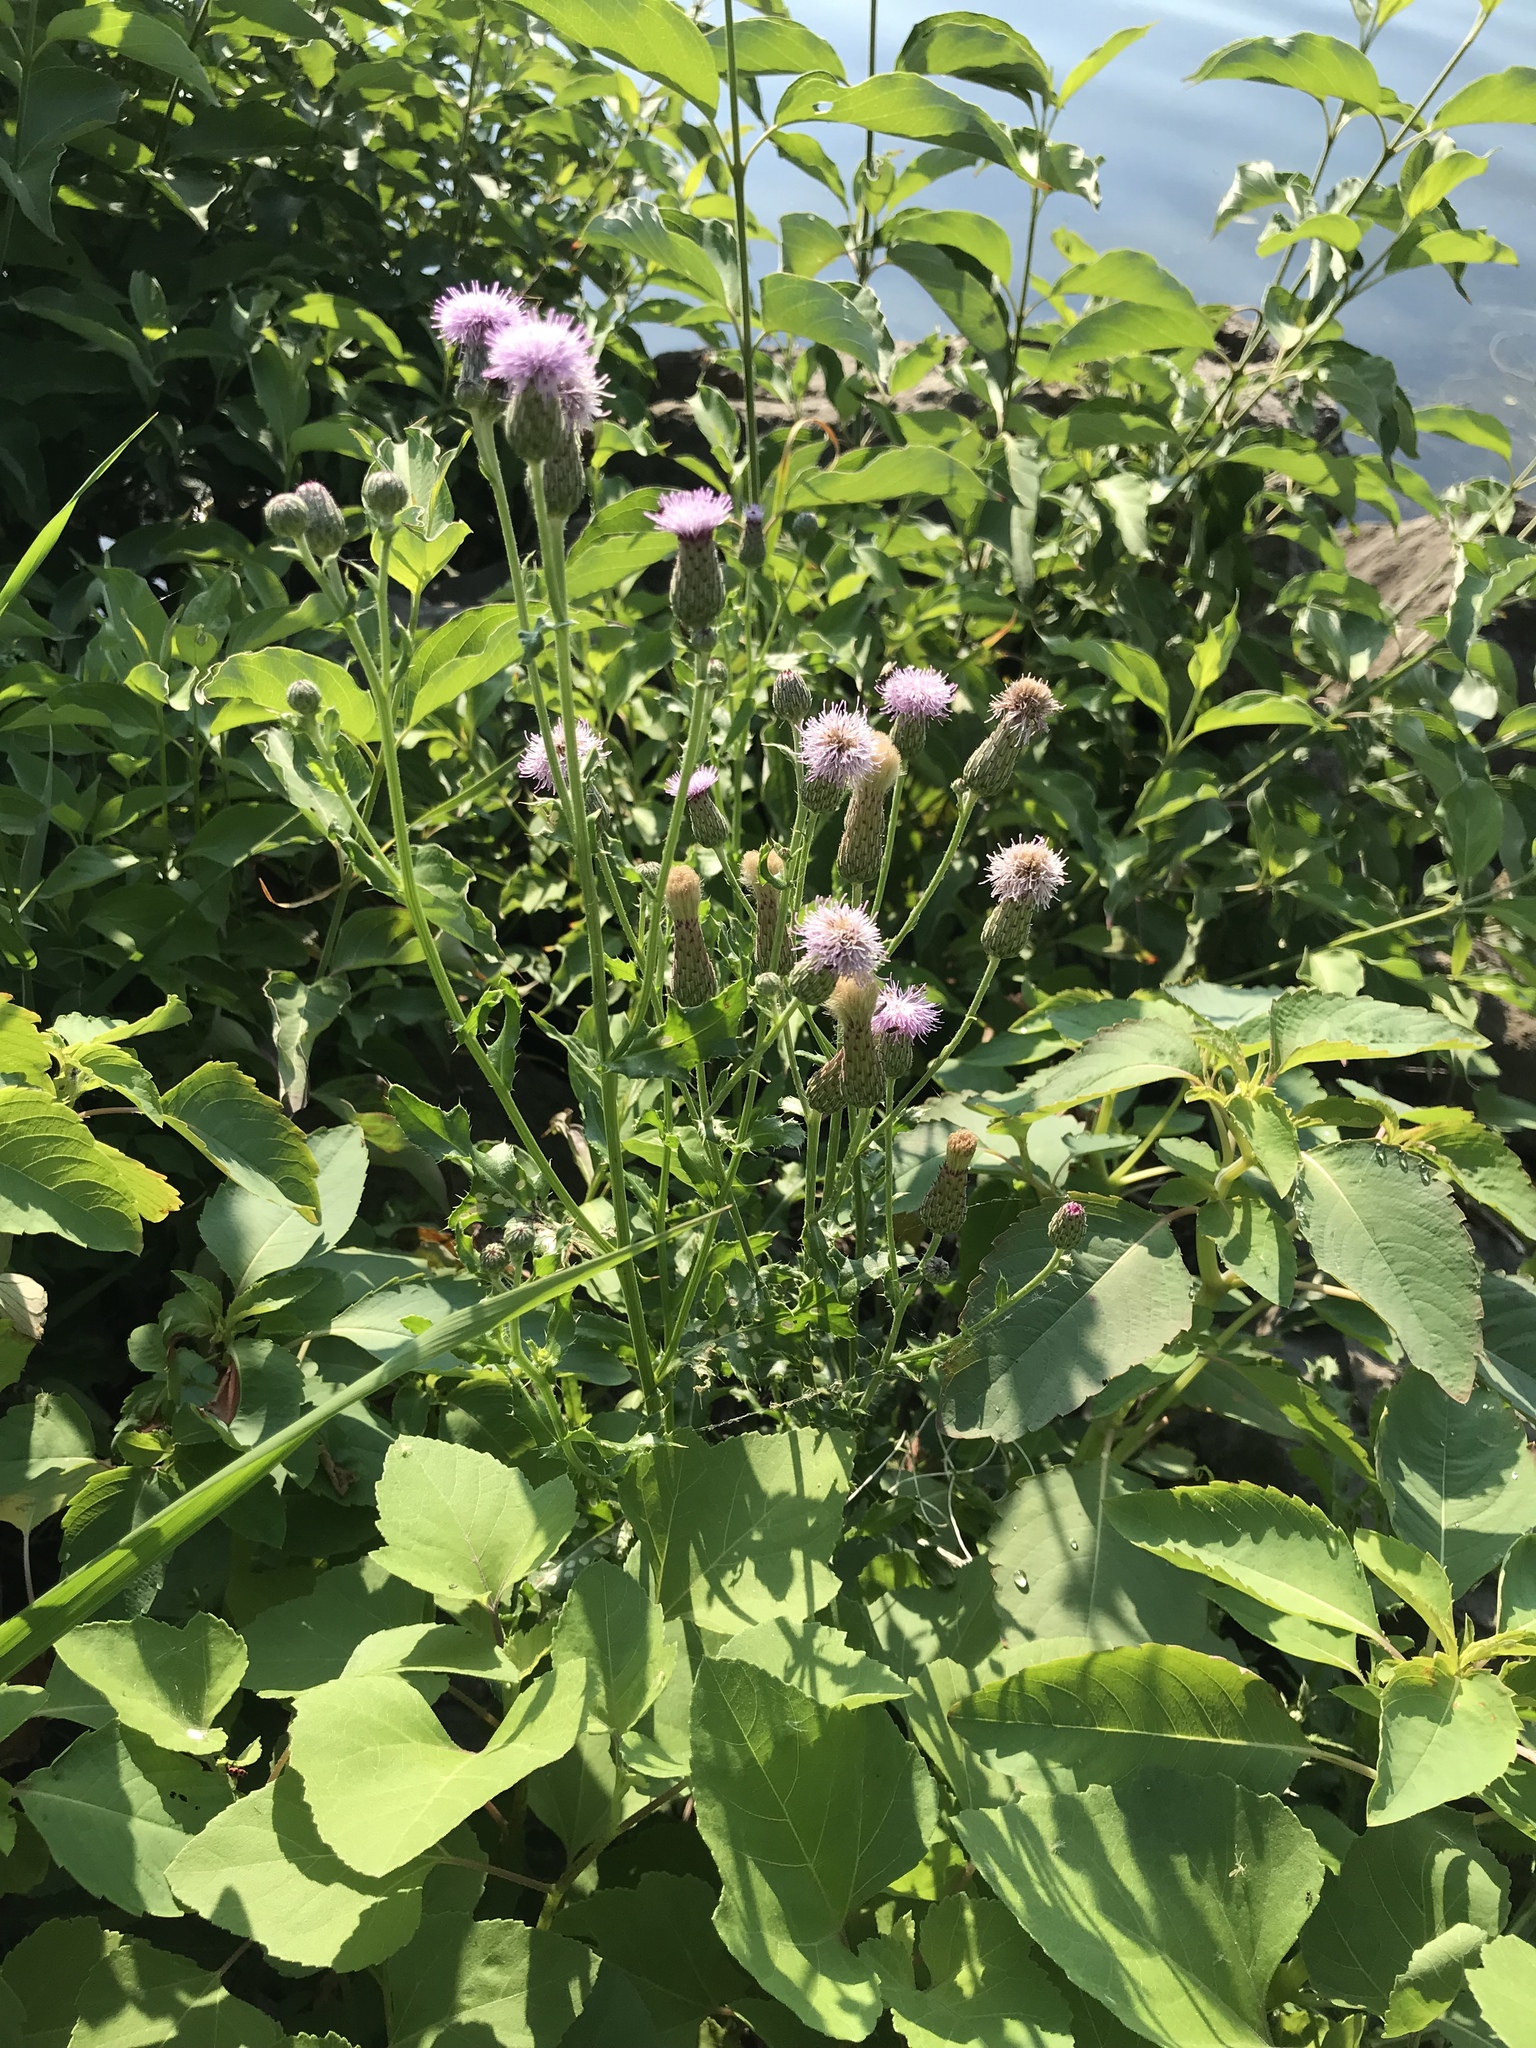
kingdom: Plantae
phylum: Tracheophyta
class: Magnoliopsida
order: Asterales
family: Asteraceae
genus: Cirsium
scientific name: Cirsium arvense
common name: Creeping thistle
